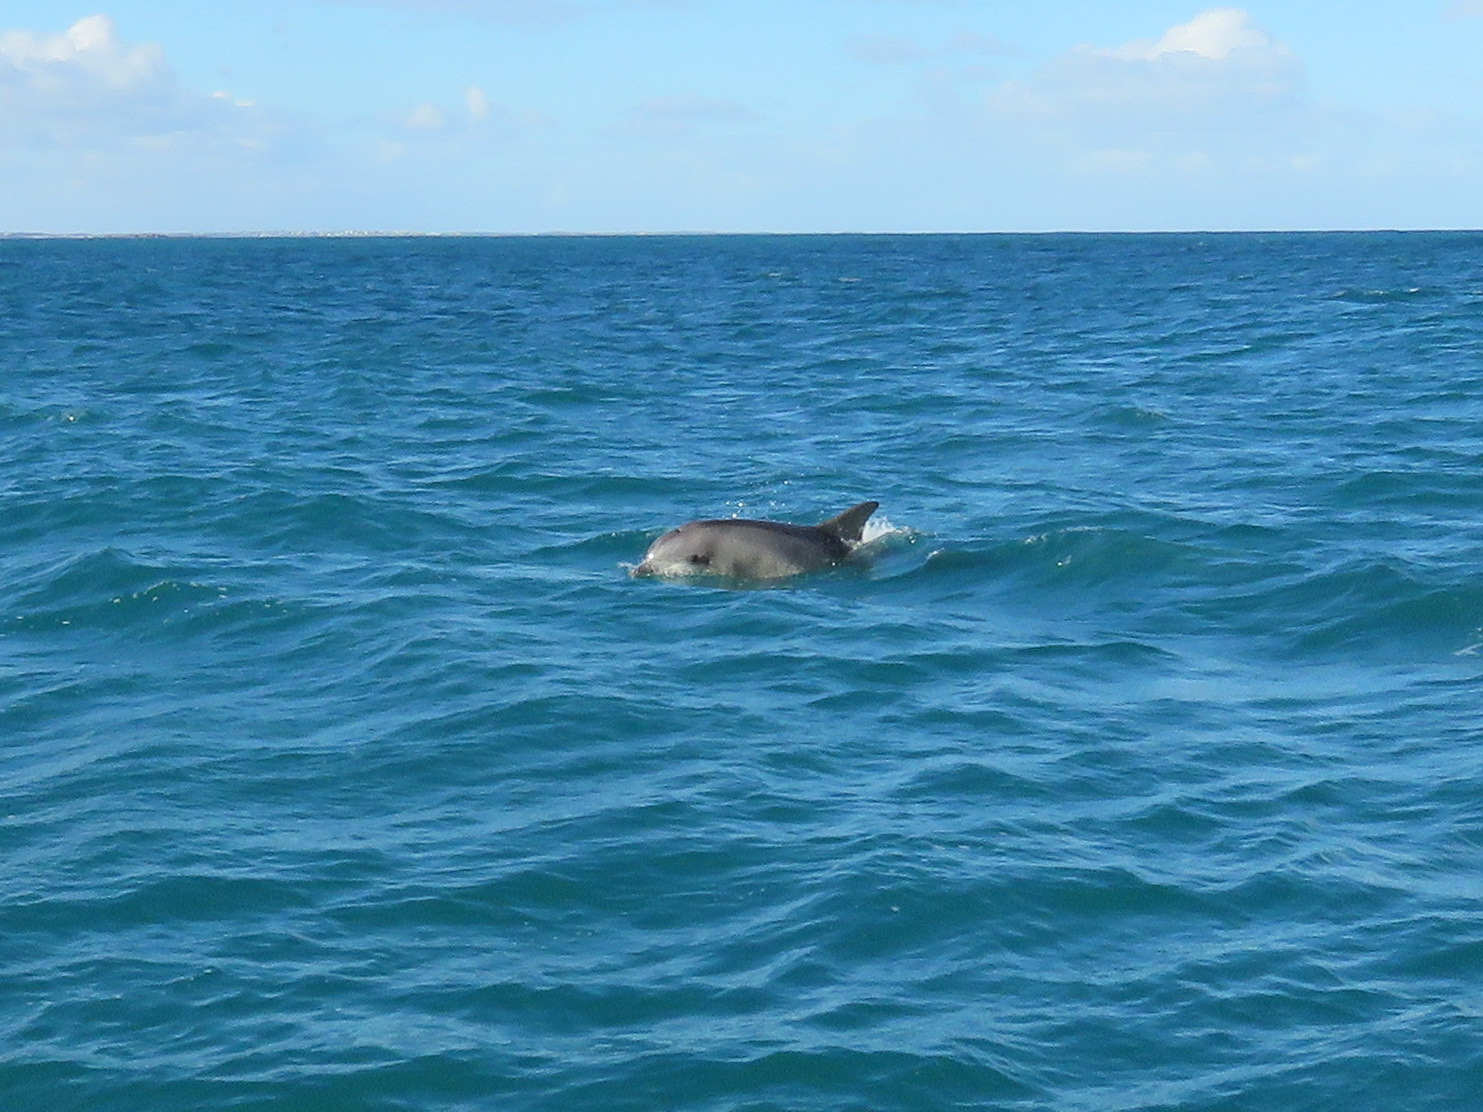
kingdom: Animalia
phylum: Chordata
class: Mammalia
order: Cetacea
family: Delphinidae
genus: Tursiops
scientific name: Tursiops truncatus
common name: Bottlenose dolphin
